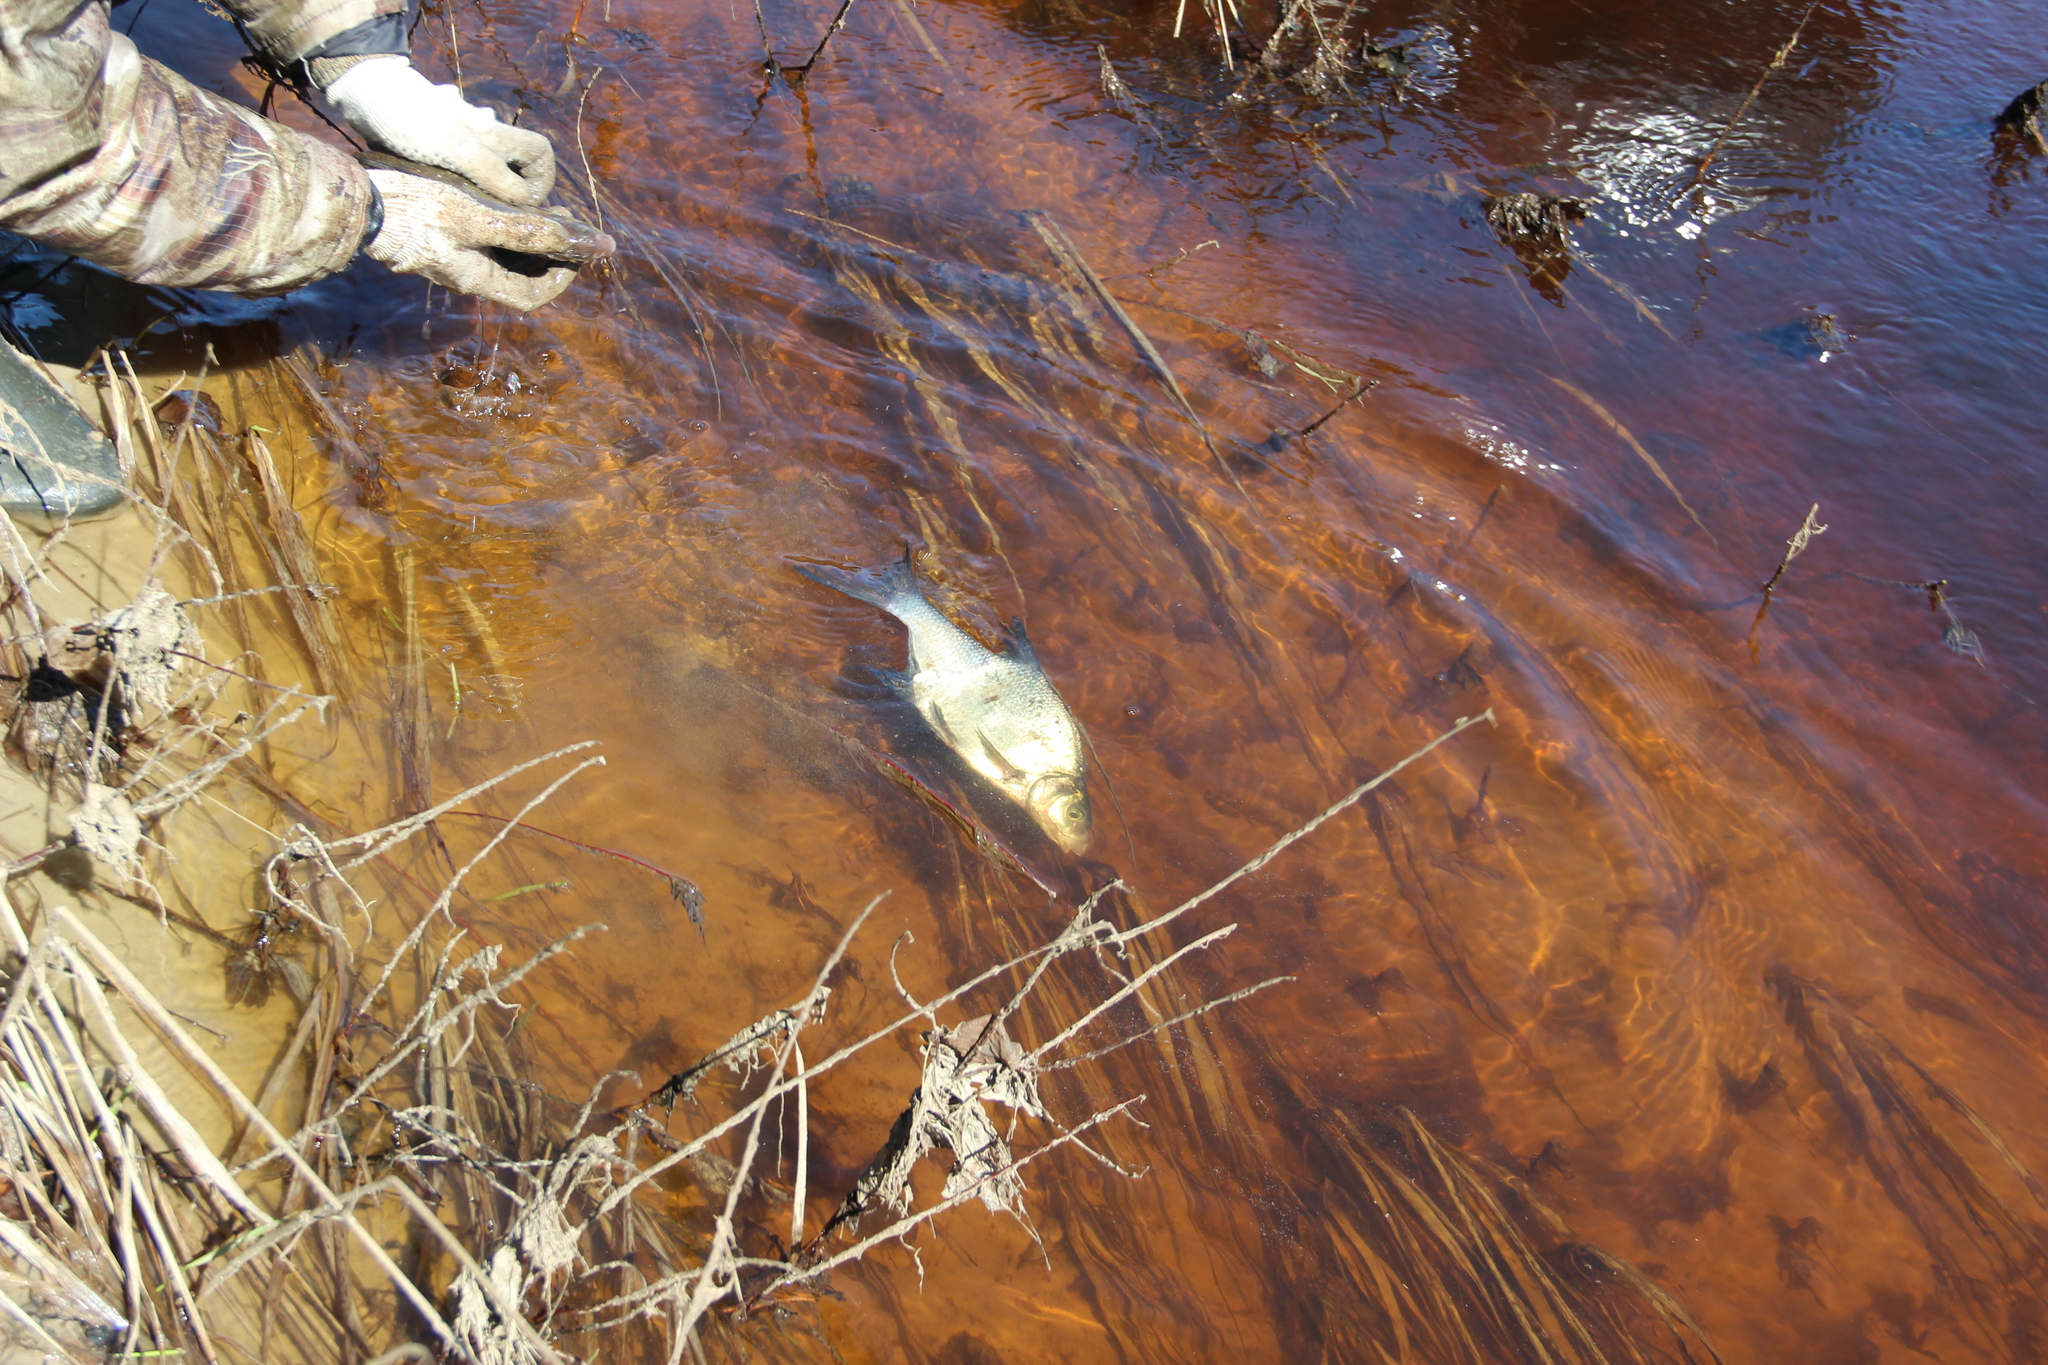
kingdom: Animalia
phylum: Chordata
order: Cypriniformes
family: Cyprinidae
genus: Abramis
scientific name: Abramis brama
